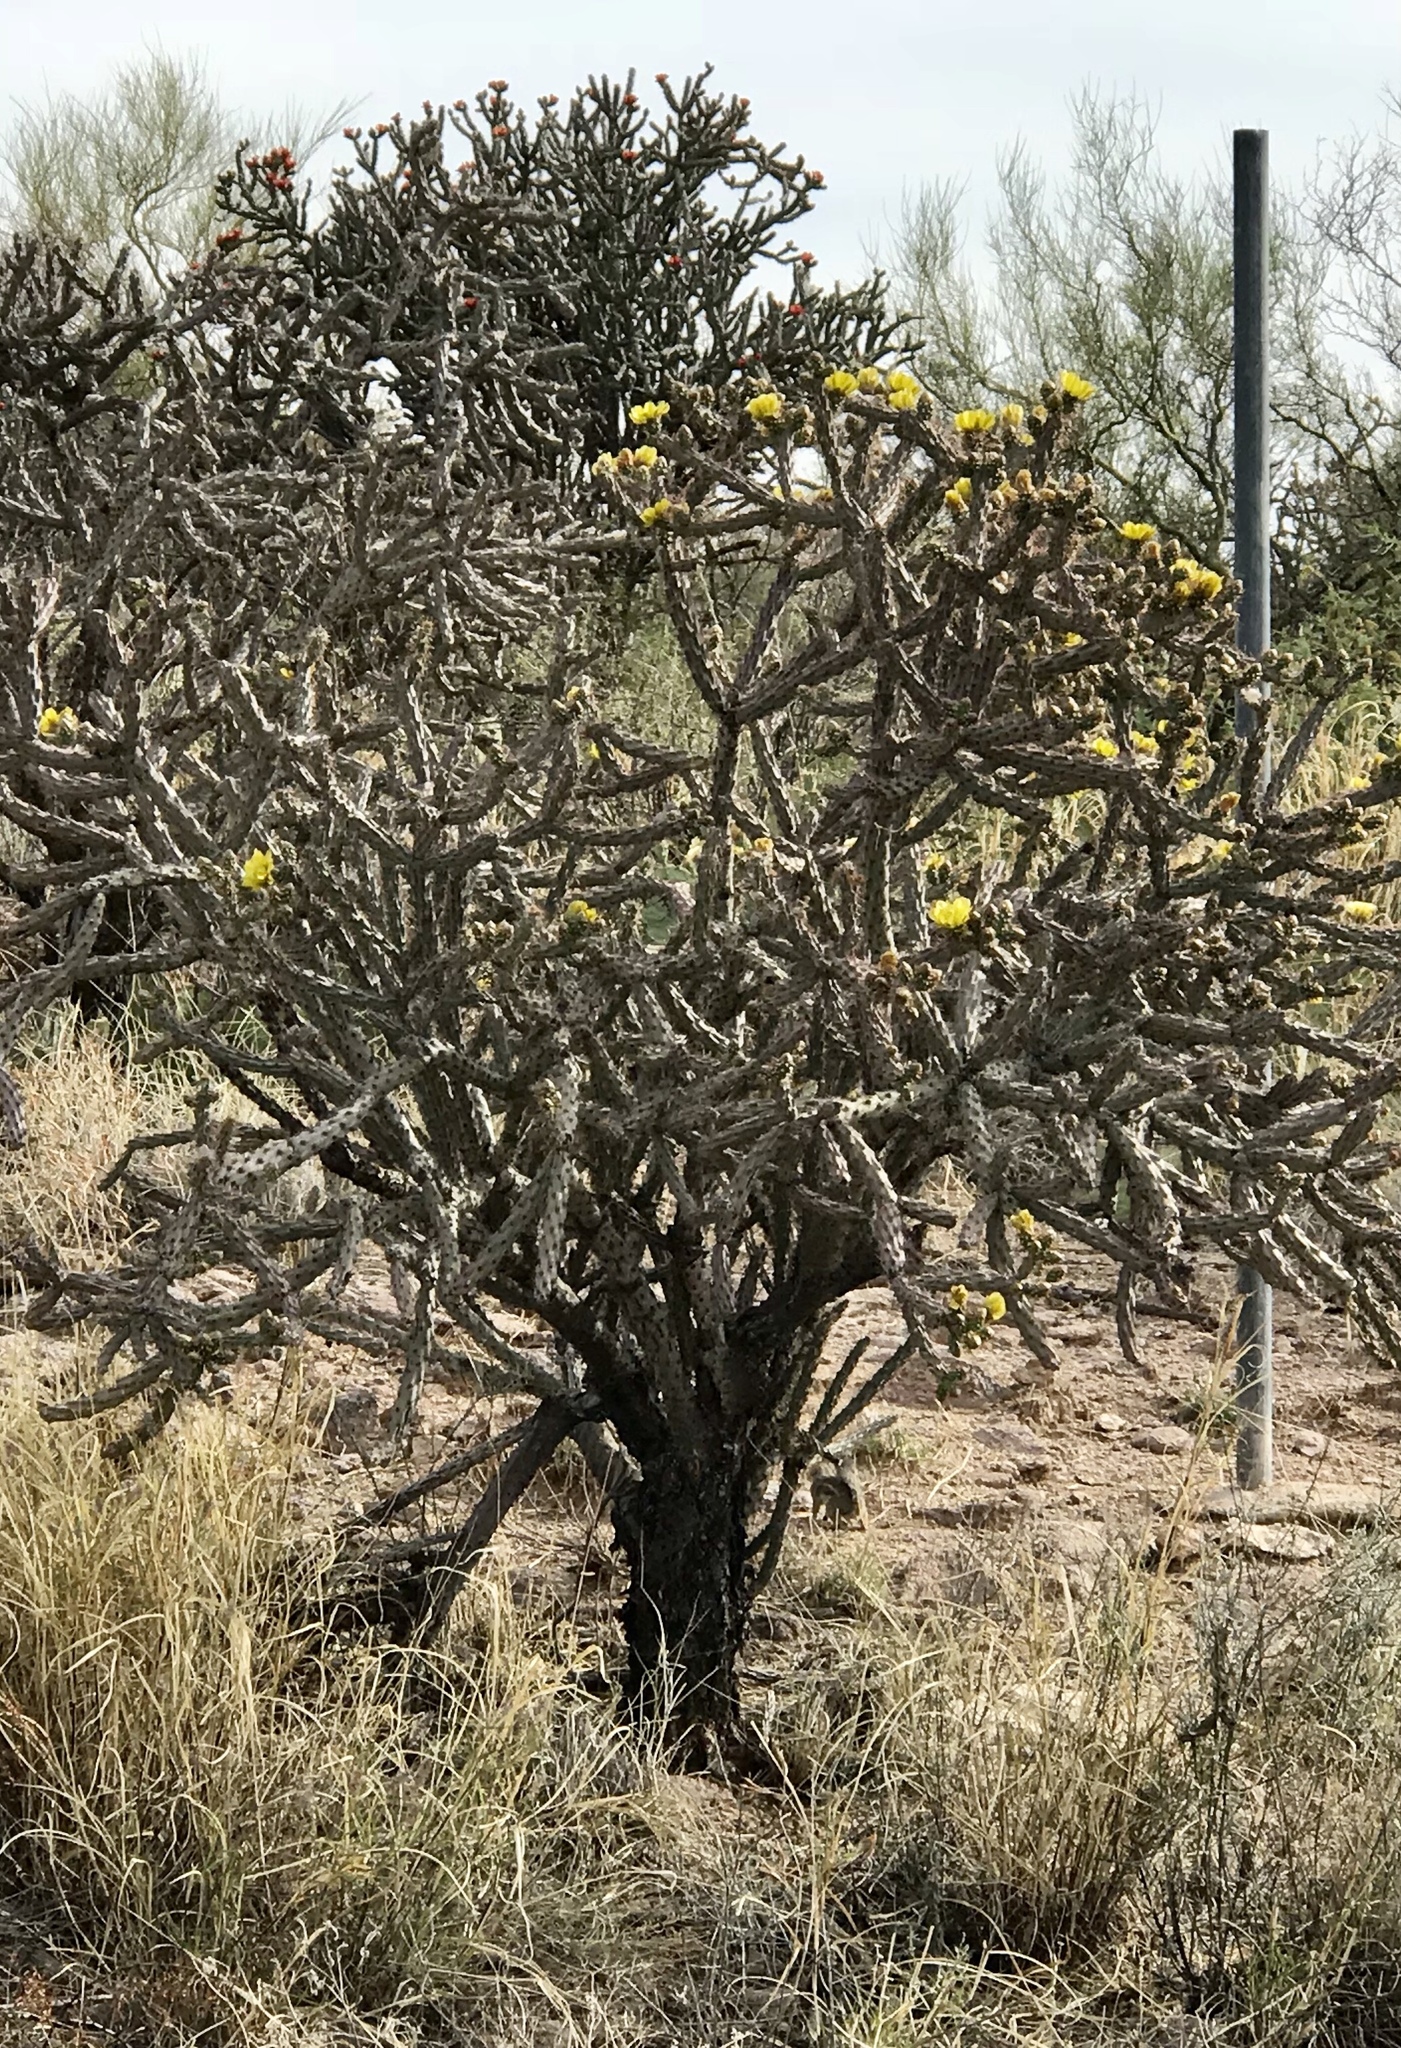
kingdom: Plantae
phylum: Tracheophyta
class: Magnoliopsida
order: Caryophyllales
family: Cactaceae
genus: Cylindropuntia
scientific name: Cylindropuntia thurberi
